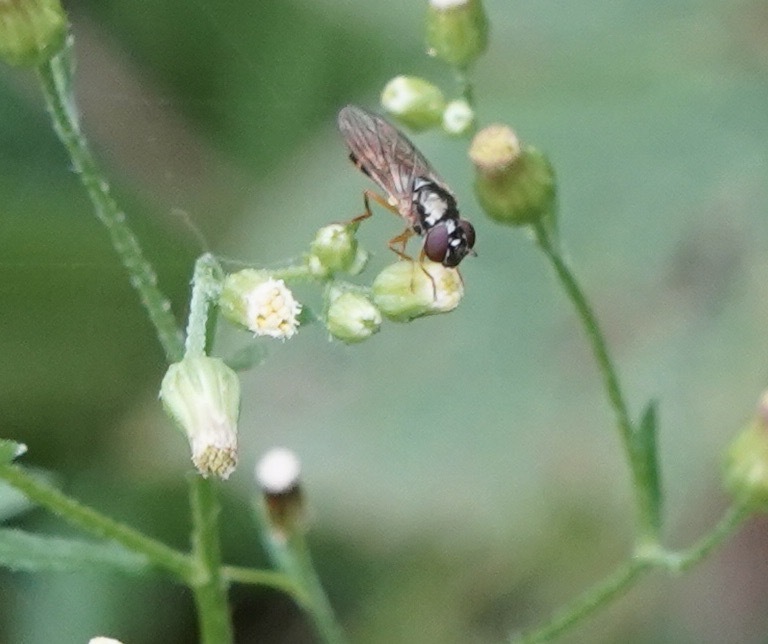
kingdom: Animalia
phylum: Arthropoda
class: Insecta
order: Diptera
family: Syrphidae
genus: Melanostoma
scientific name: Melanostoma mellina
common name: Hover fly
